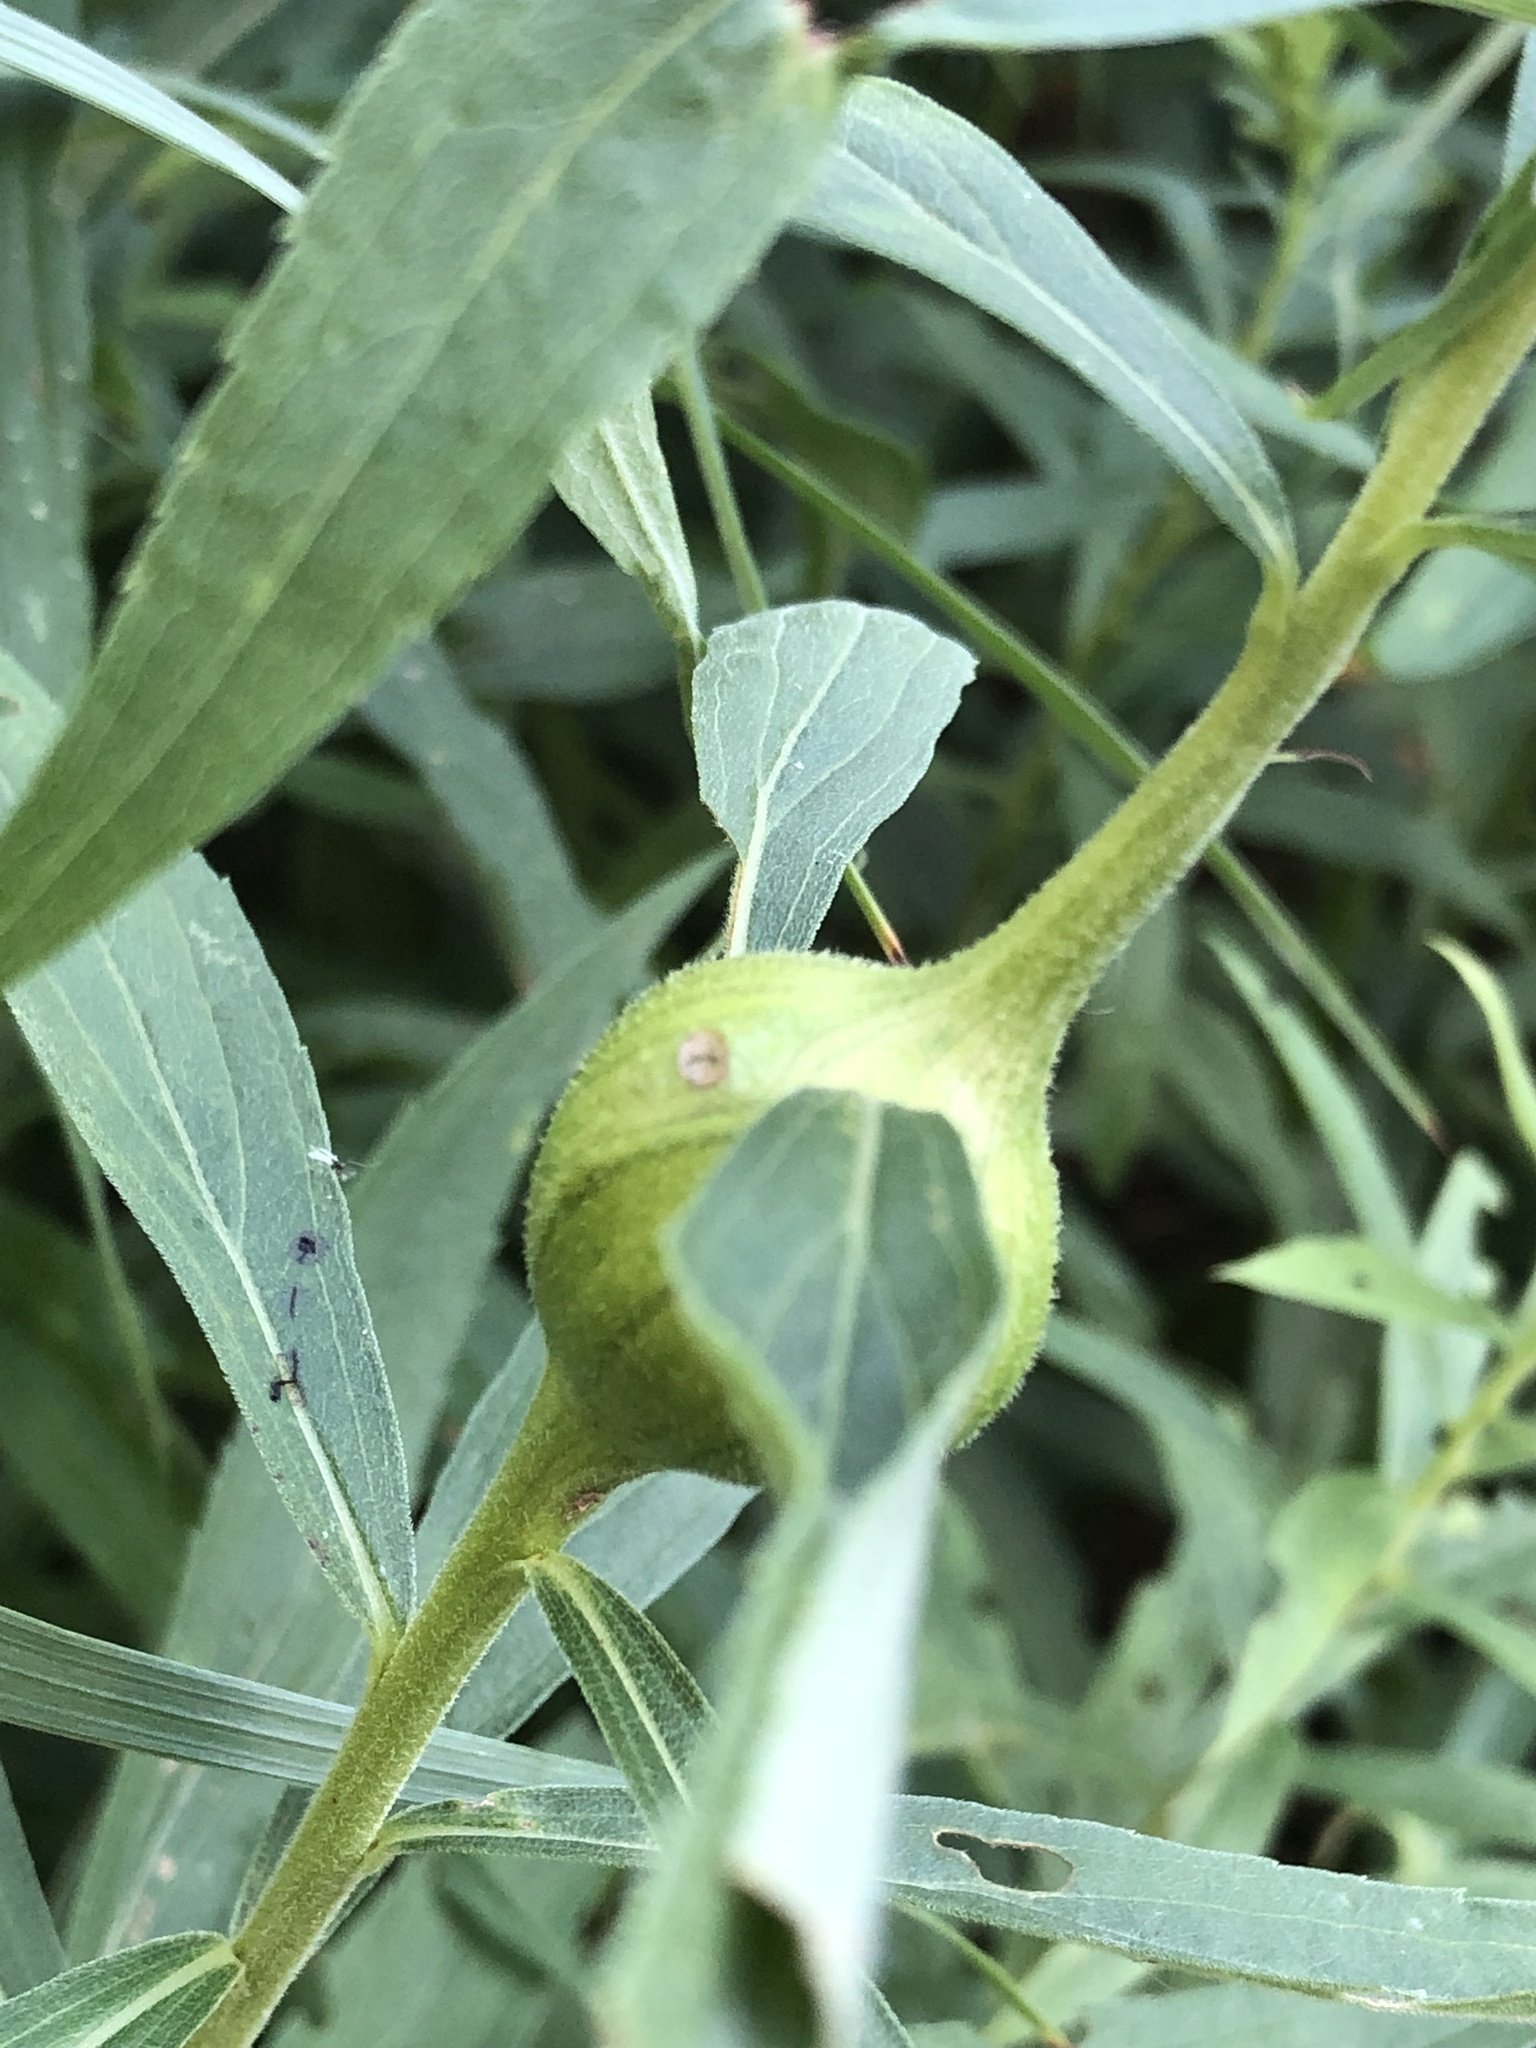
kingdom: Animalia
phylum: Arthropoda
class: Insecta
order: Diptera
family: Tephritidae
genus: Eurosta
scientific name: Eurosta solidaginis
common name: Goldenrod gall fly
